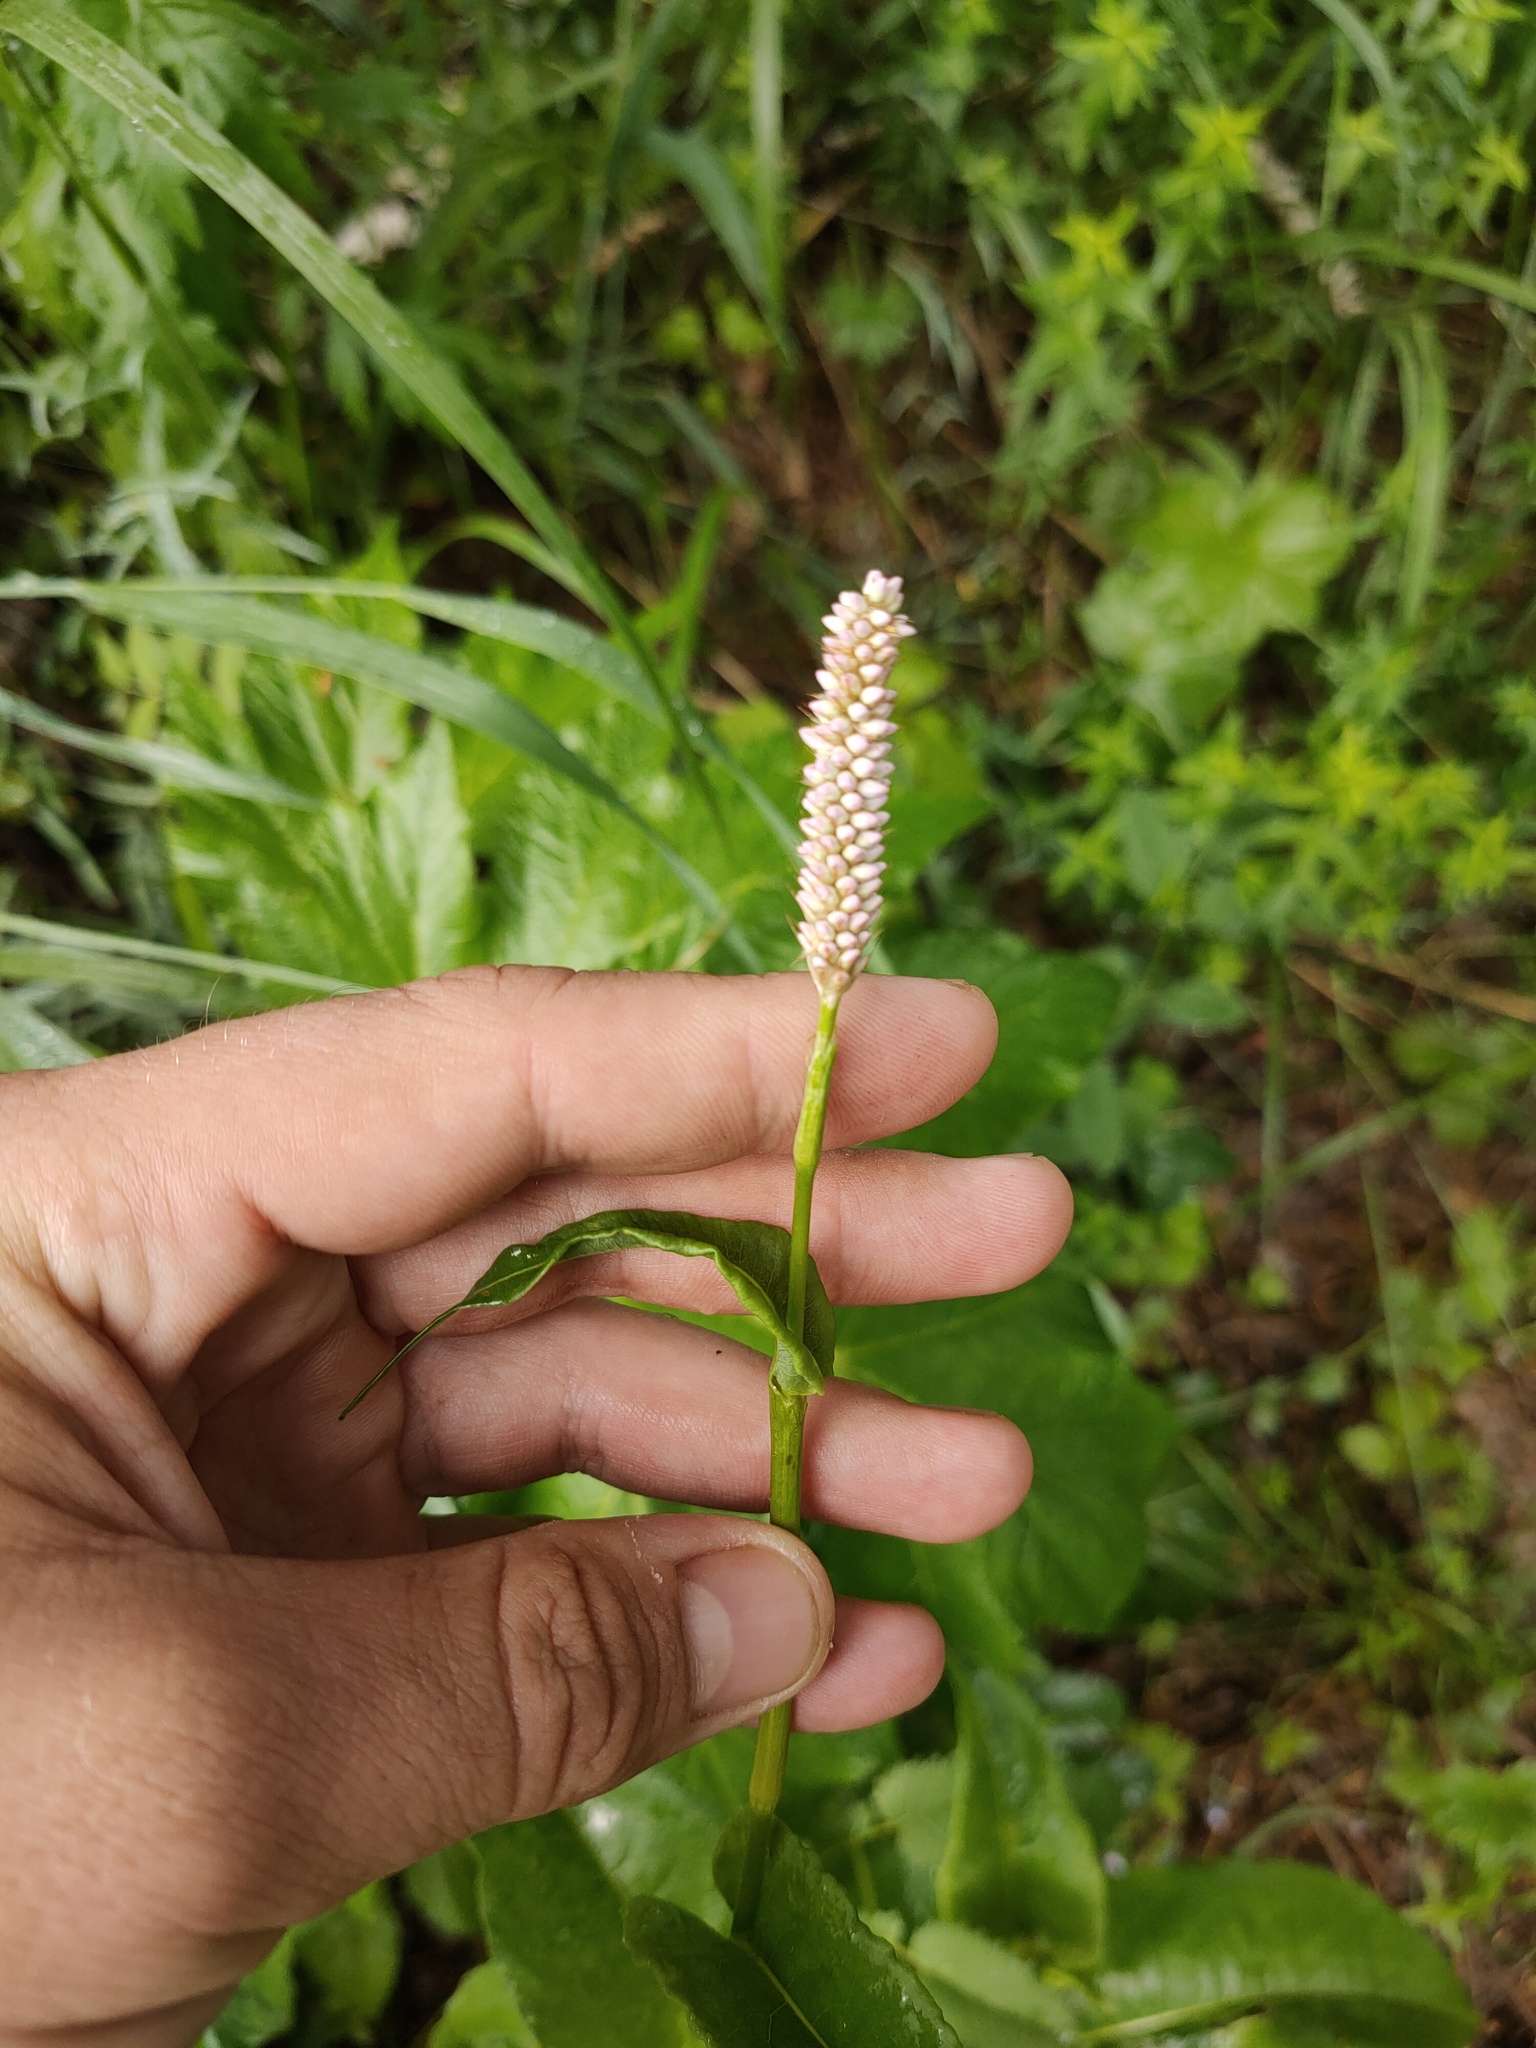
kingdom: Plantae
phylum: Tracheophyta
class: Magnoliopsida
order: Caryophyllales
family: Polygonaceae
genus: Bistorta
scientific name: Bistorta officinalis
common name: Common bistort
